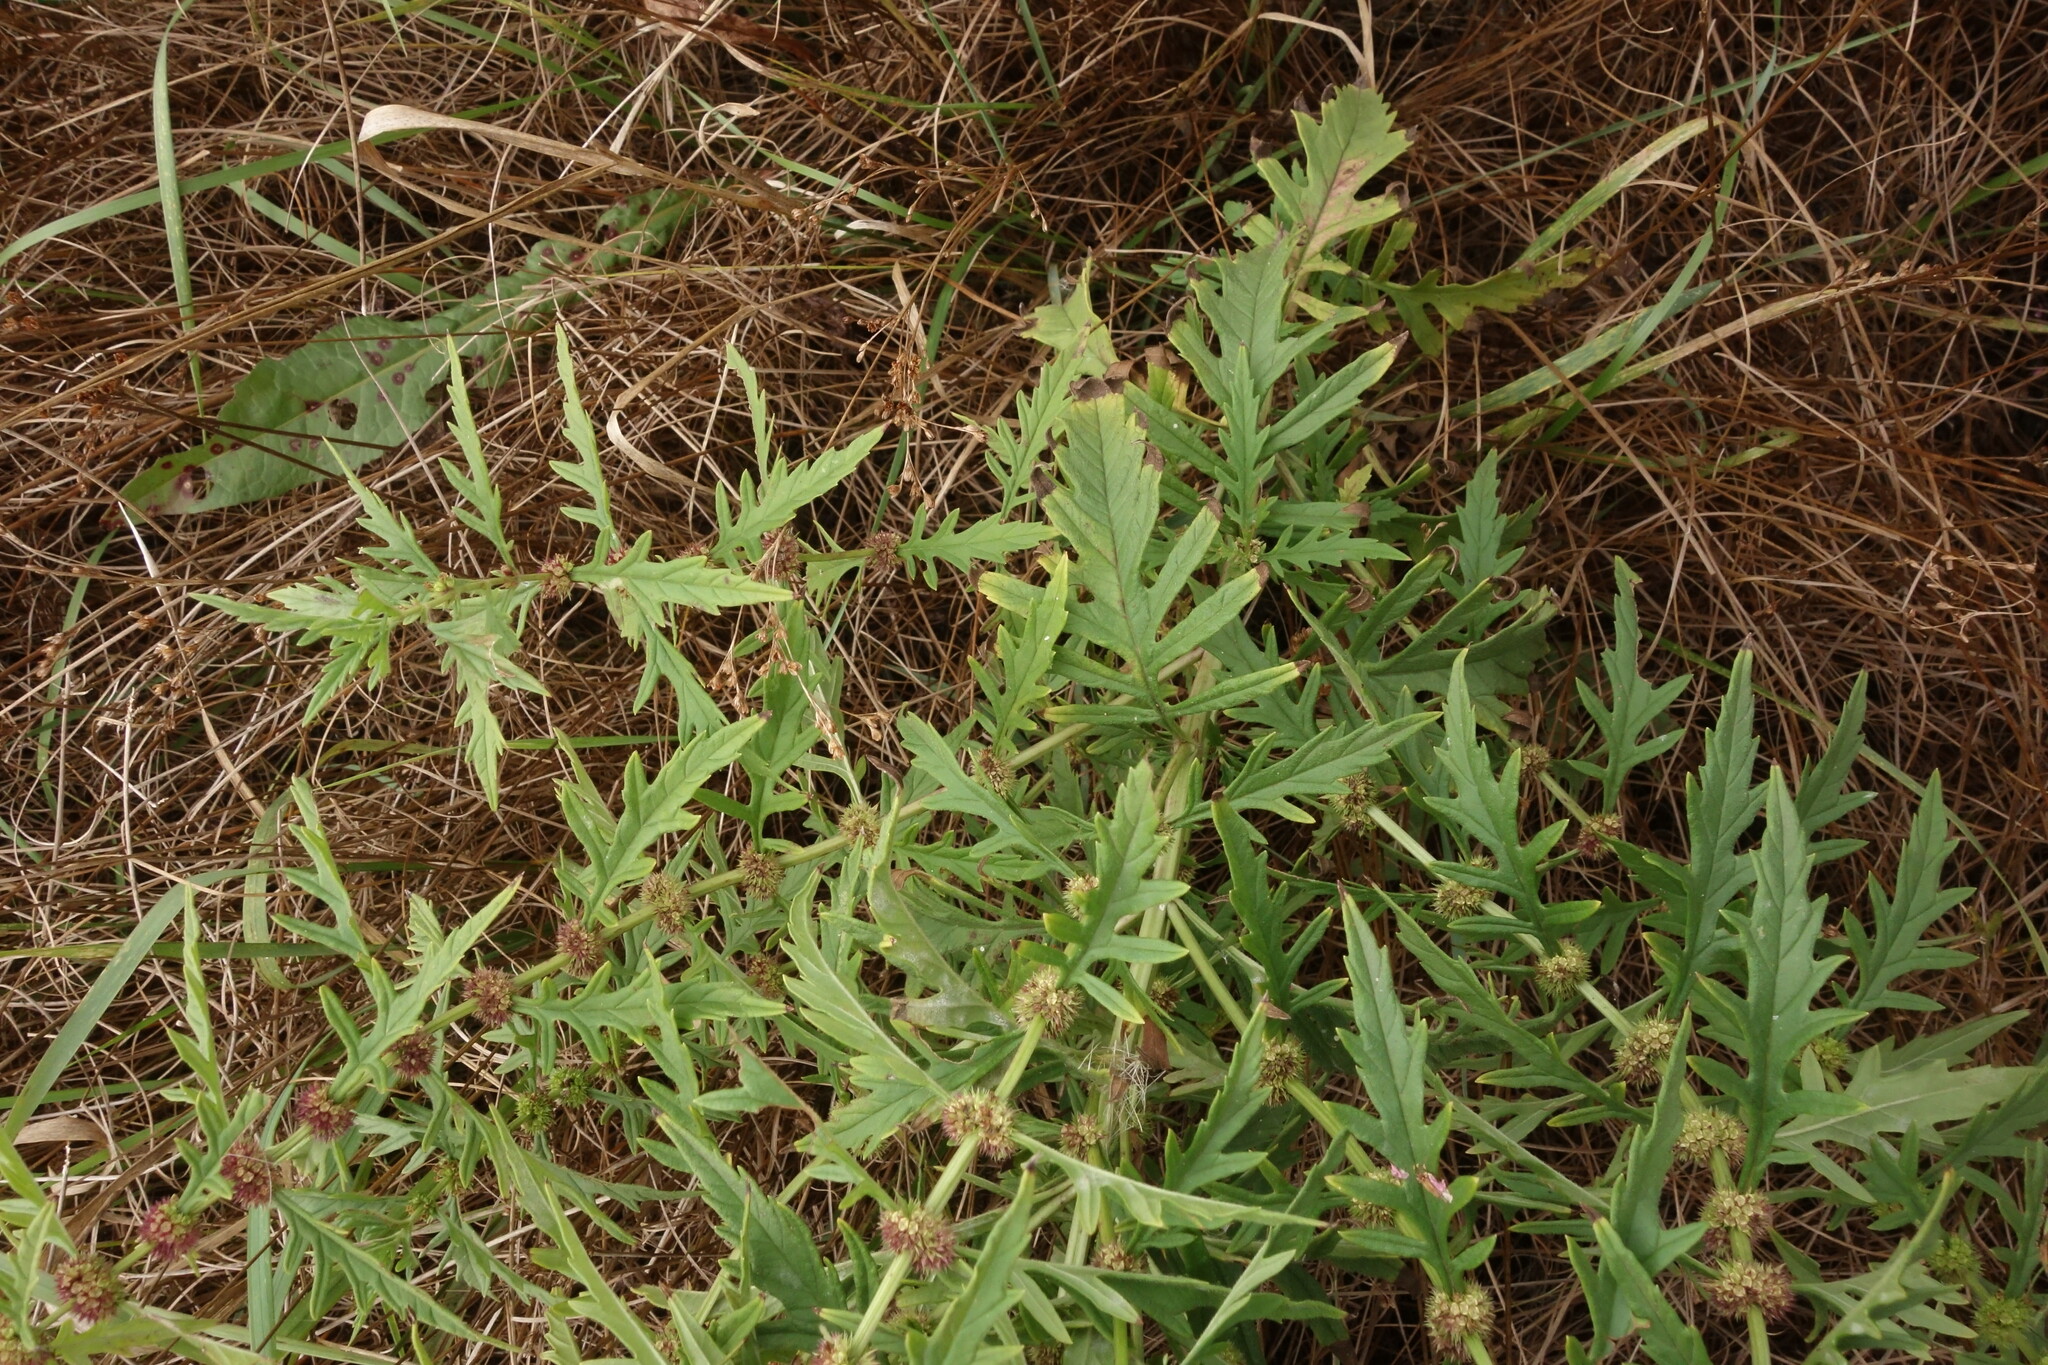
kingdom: Plantae
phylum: Tracheophyta
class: Magnoliopsida
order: Lamiales
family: Lamiaceae
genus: Lycopus
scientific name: Lycopus exaltatus
